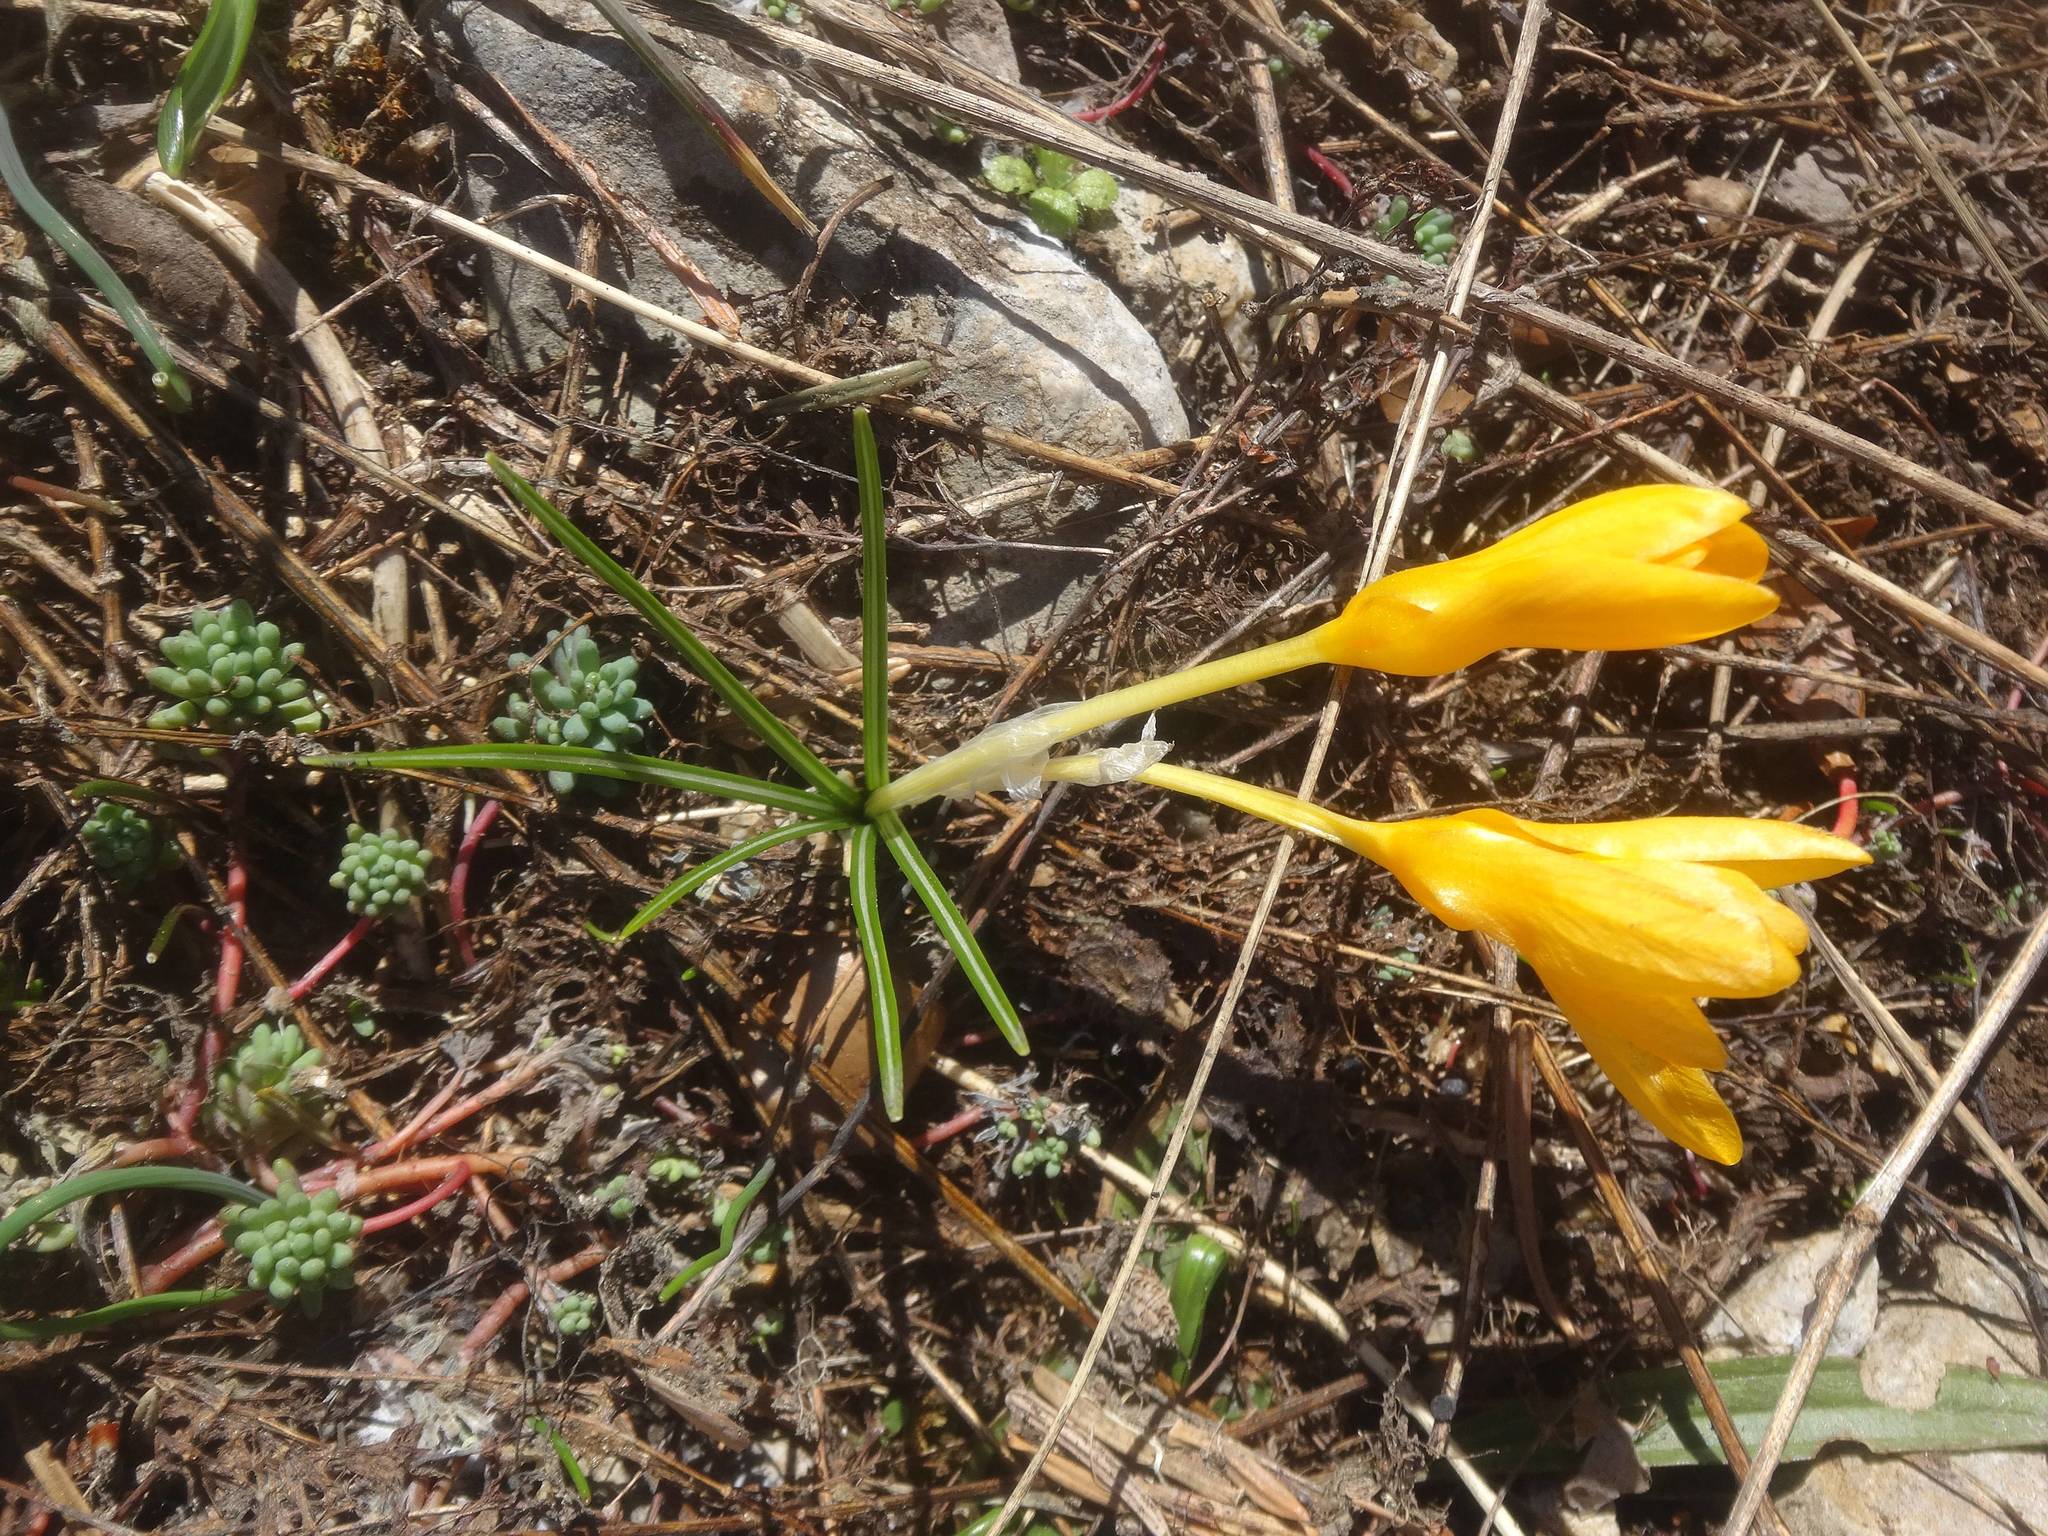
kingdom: Plantae
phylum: Tracheophyta
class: Liliopsida
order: Asparagales
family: Iridaceae
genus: Crocus
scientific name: Crocus chrysanthus
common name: Golden crocus
